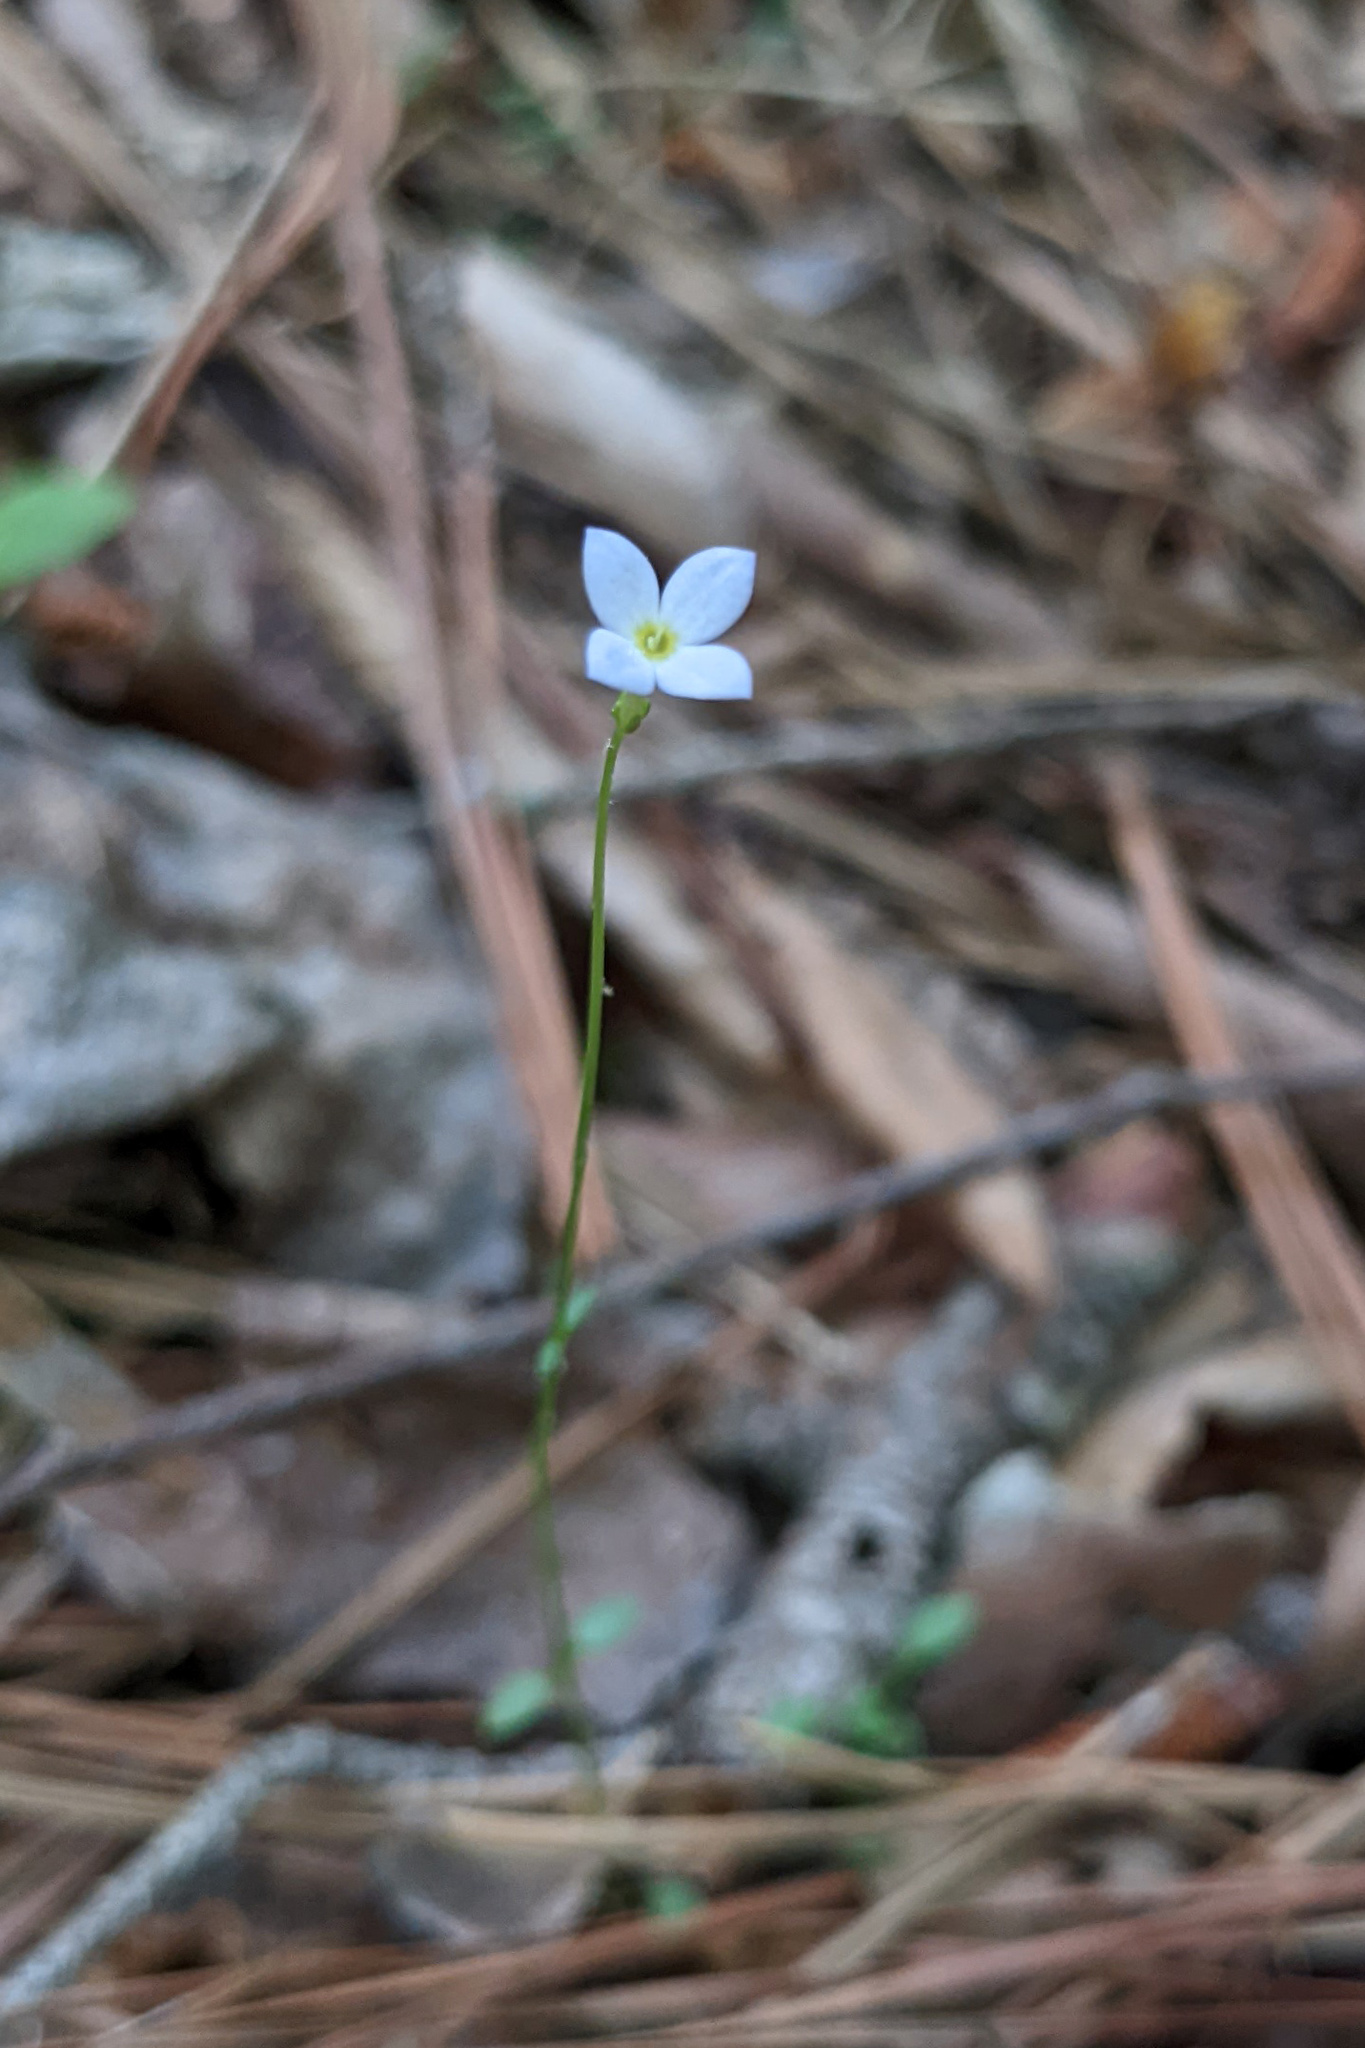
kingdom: Plantae
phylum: Tracheophyta
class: Magnoliopsida
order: Gentianales
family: Rubiaceae
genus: Houstonia
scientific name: Houstonia caerulea
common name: Bluets
